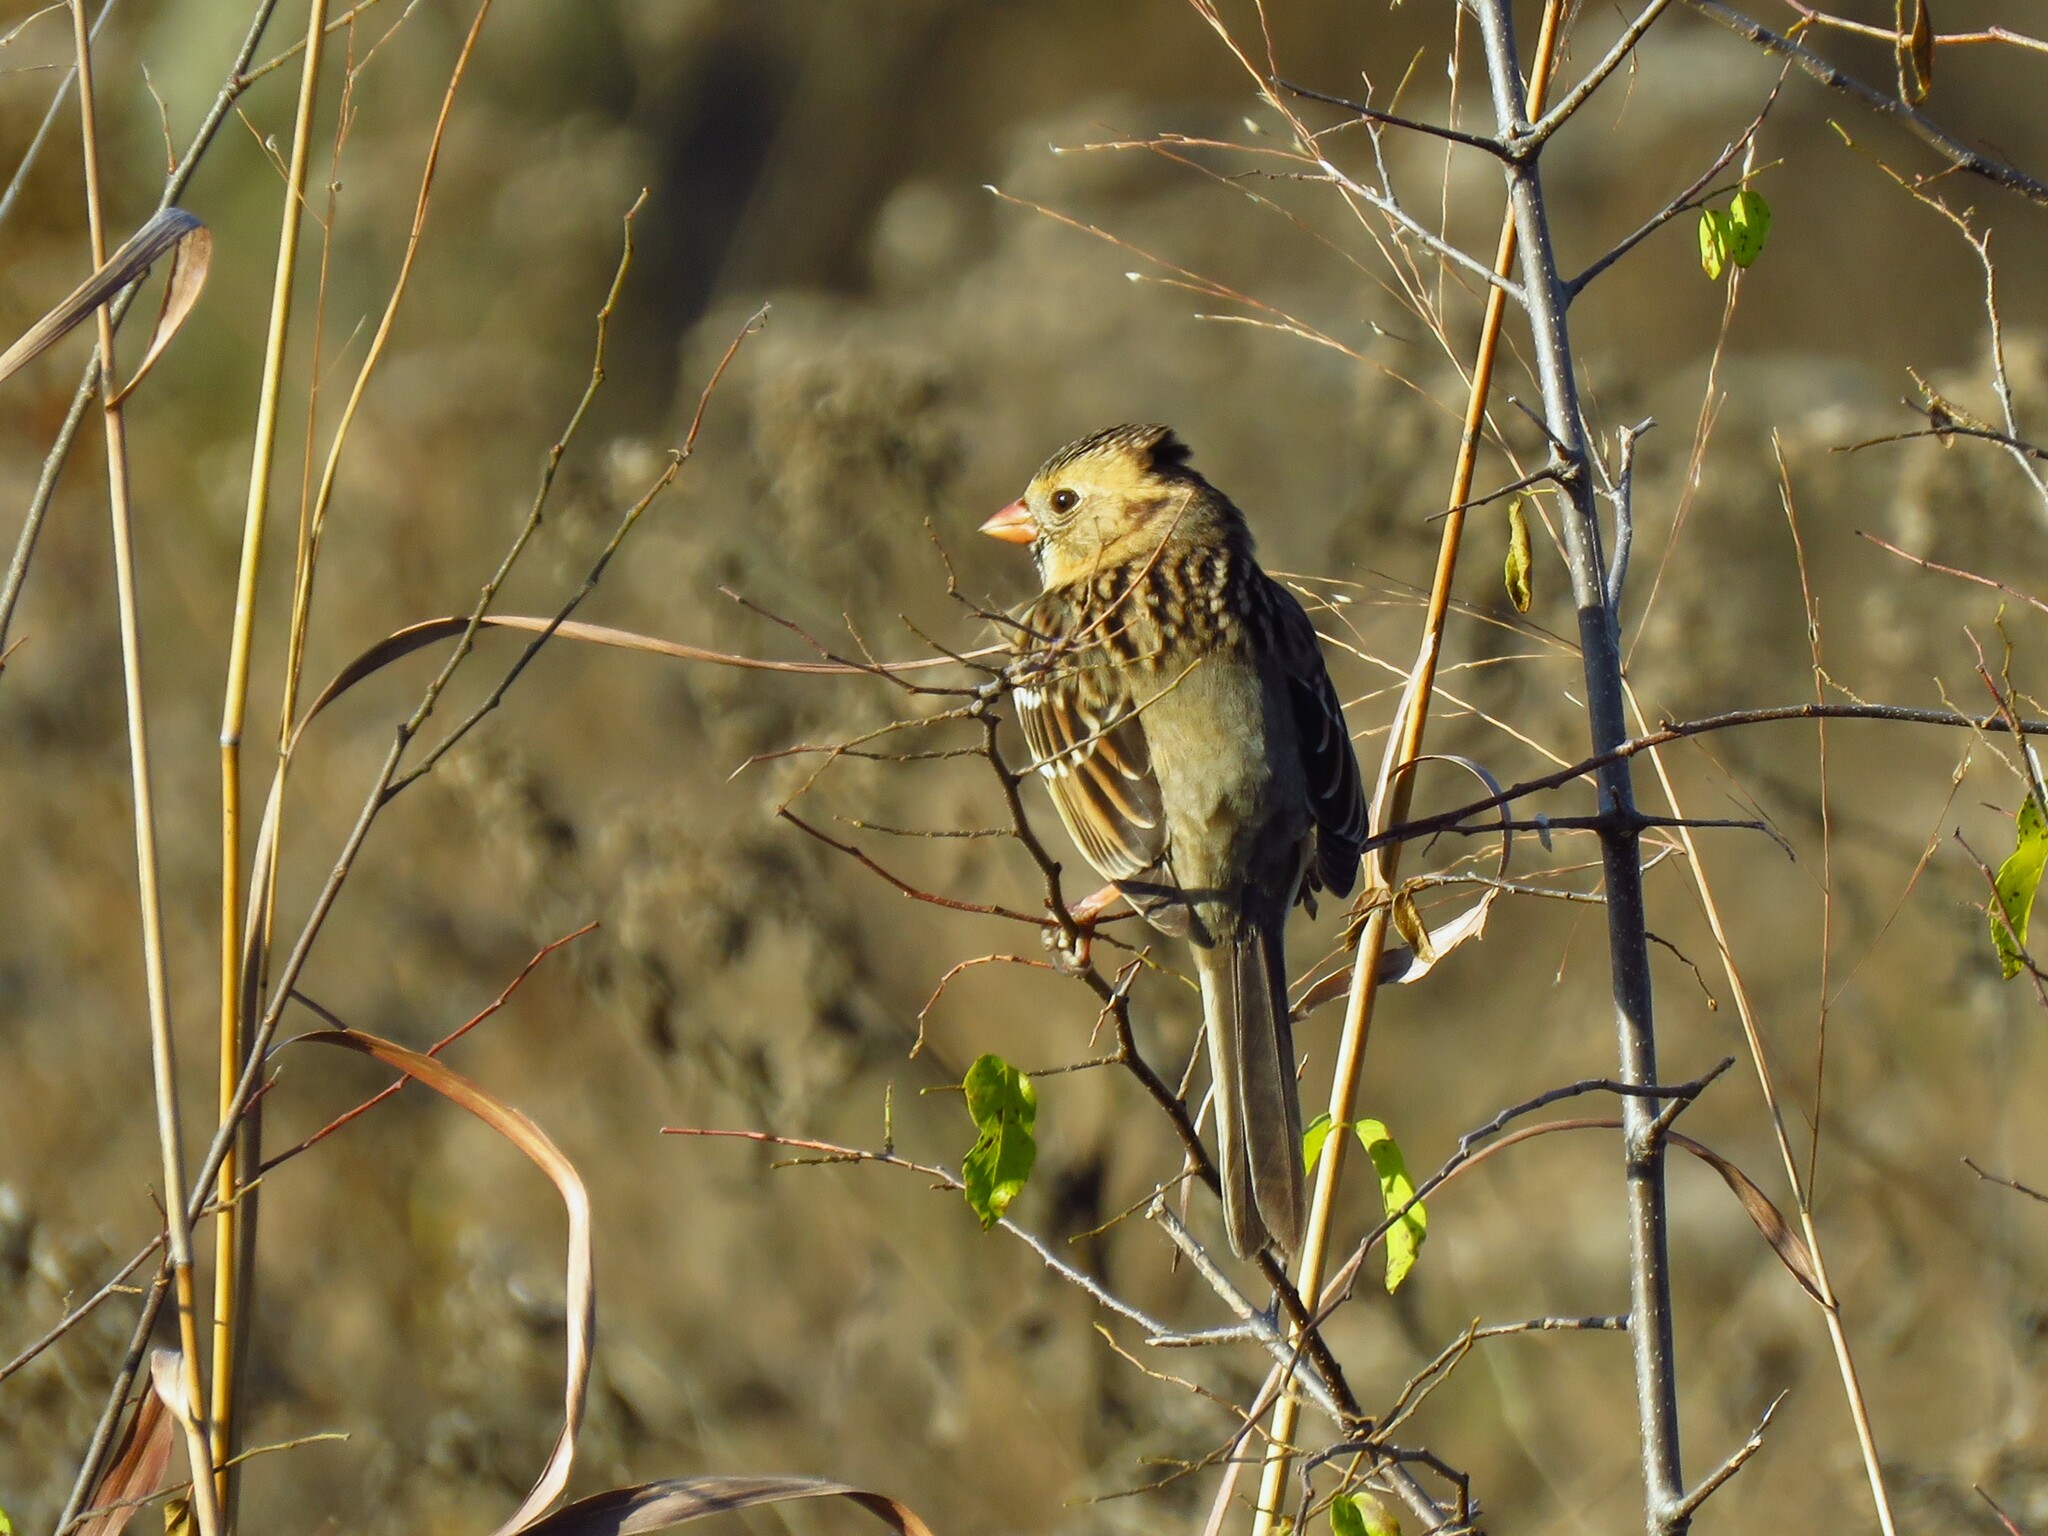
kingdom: Animalia
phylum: Chordata
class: Aves
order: Passeriformes
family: Passerellidae
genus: Zonotrichia
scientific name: Zonotrichia querula
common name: Harris's sparrow
